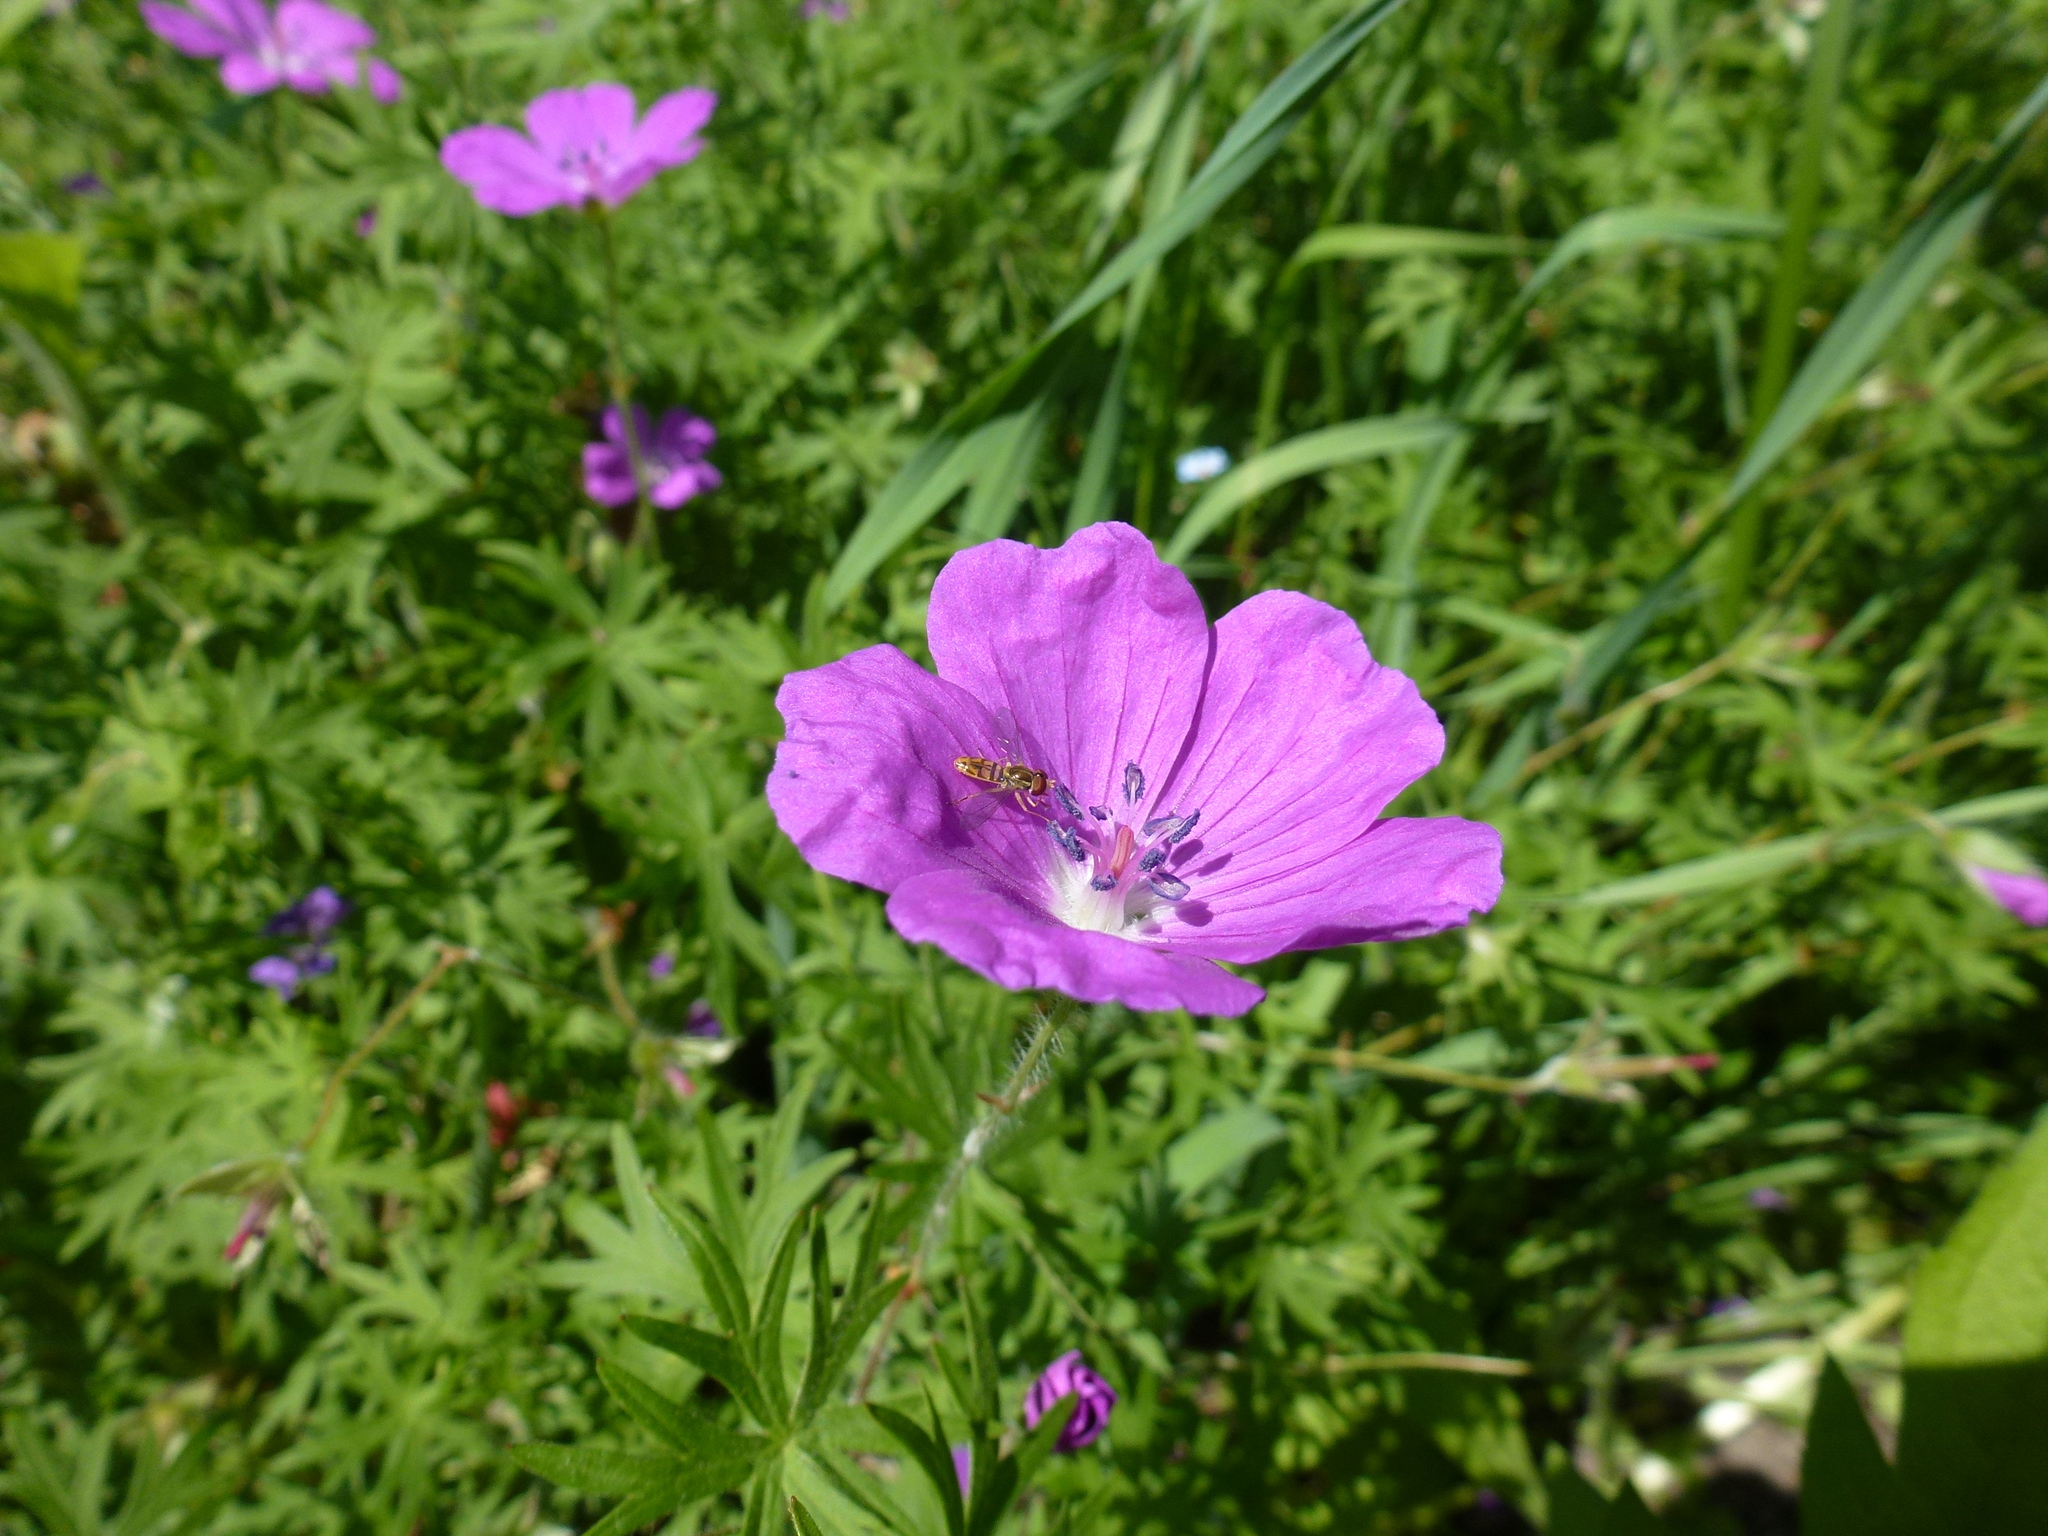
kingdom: Animalia
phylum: Arthropoda
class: Insecta
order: Diptera
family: Syrphidae
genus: Toxomerus
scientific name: Toxomerus marginatus
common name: Syrphid fly
